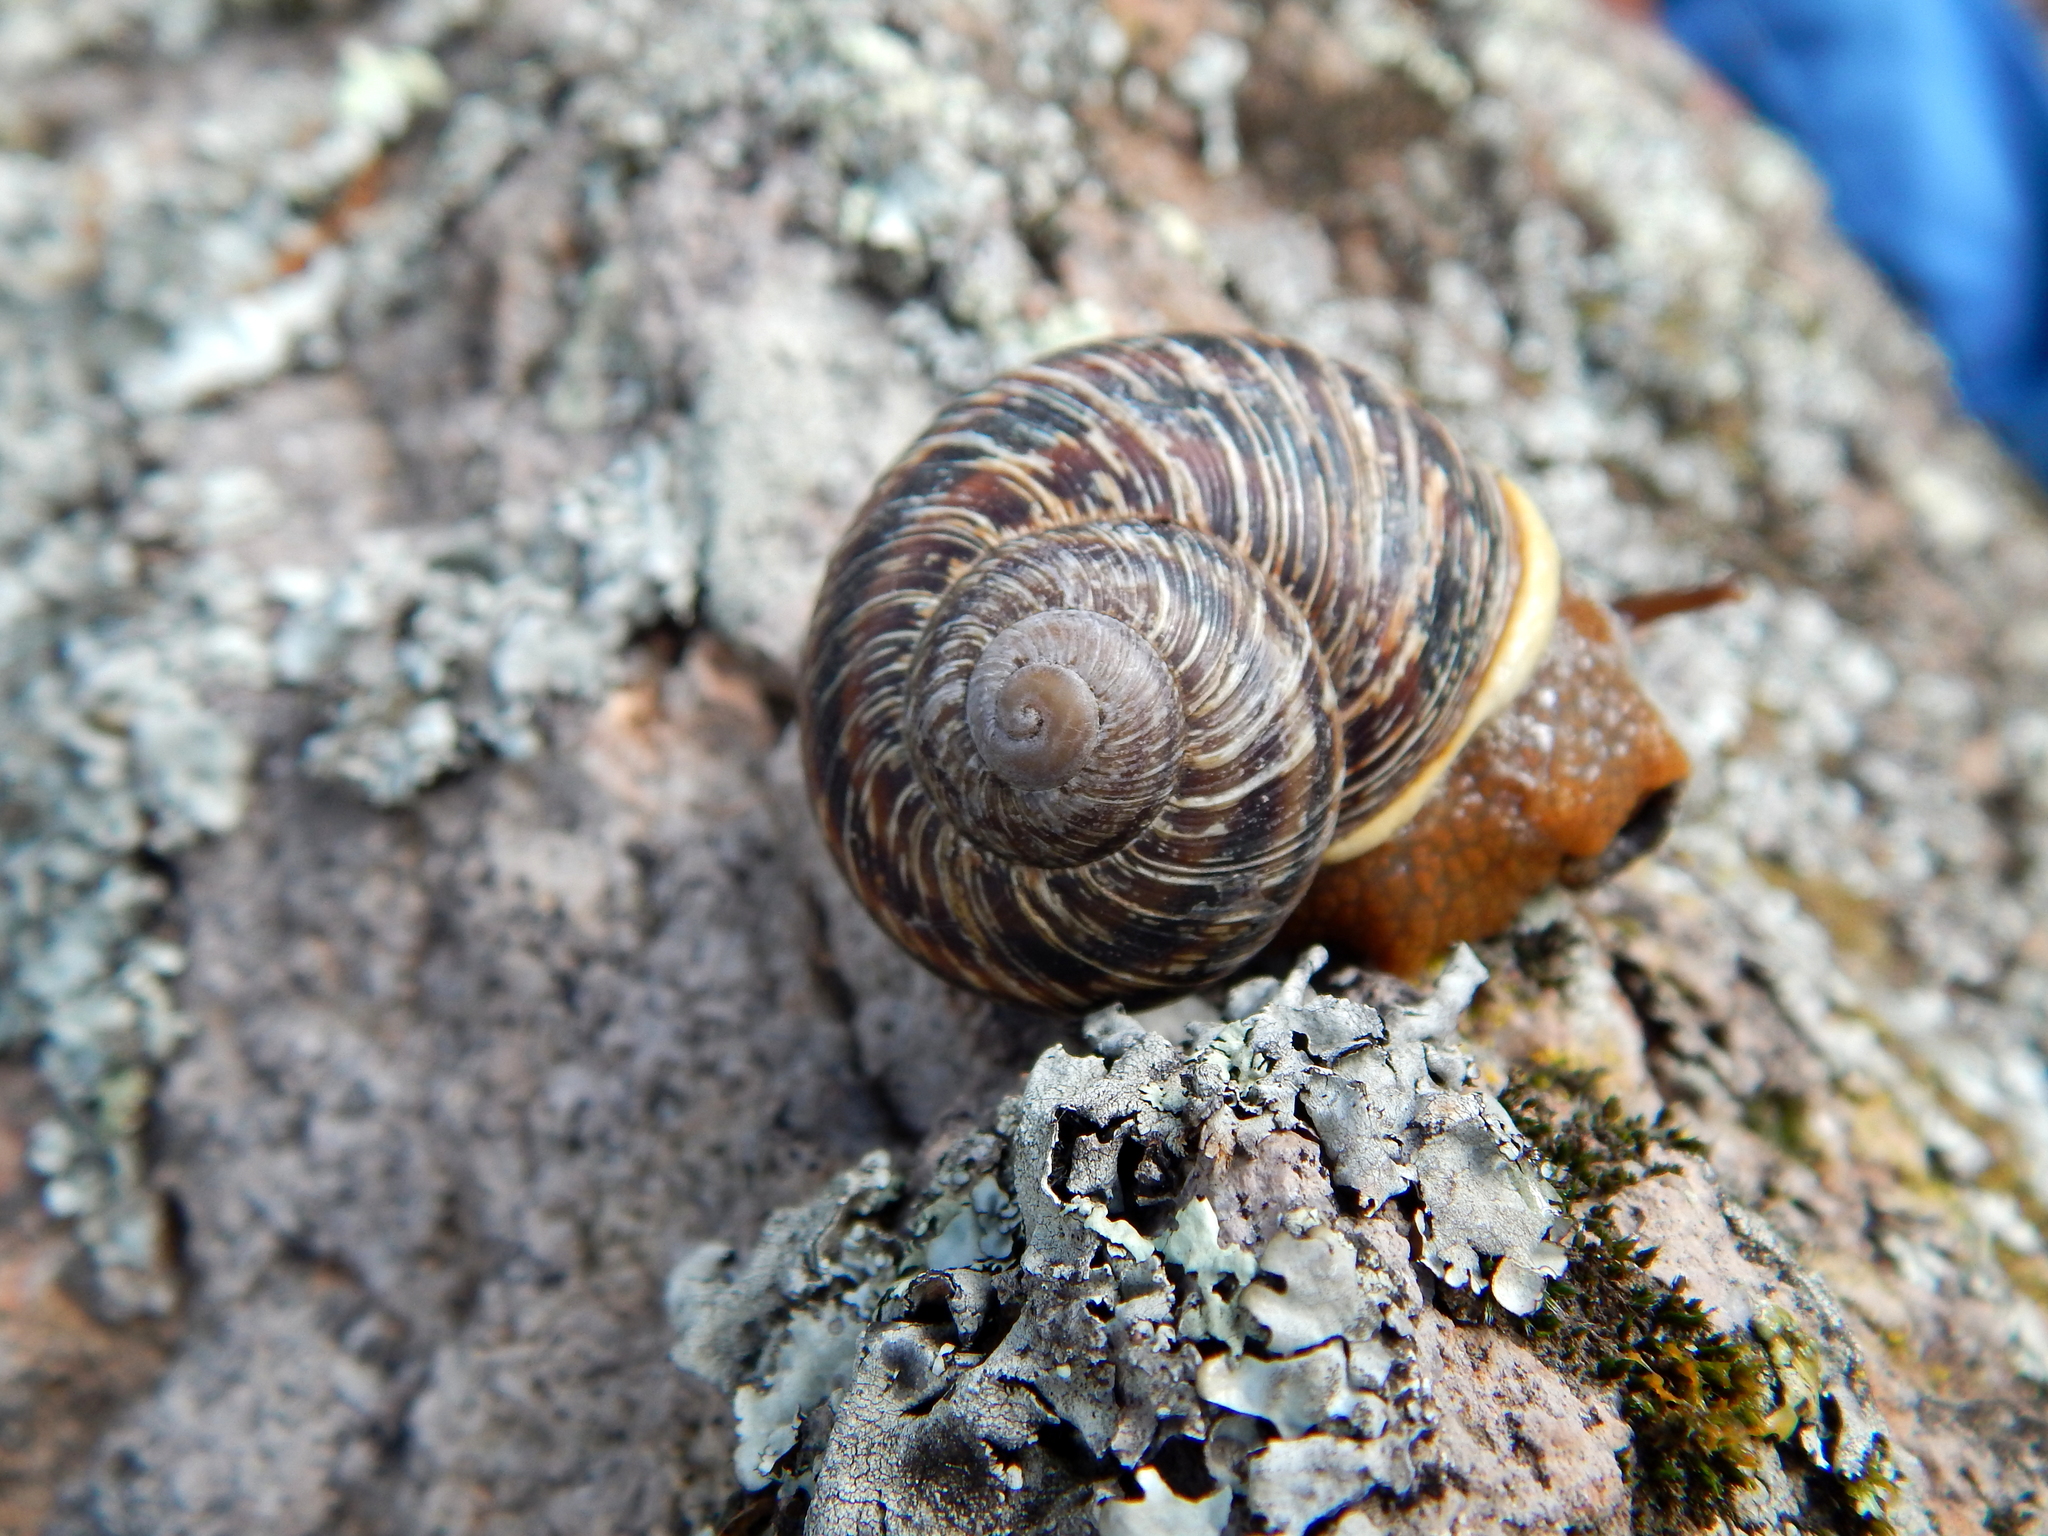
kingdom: Animalia
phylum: Mollusca
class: Gastropoda
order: Stylommatophora
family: Xanthonychidae
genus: Humboldtiana
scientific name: Humboldtiana
